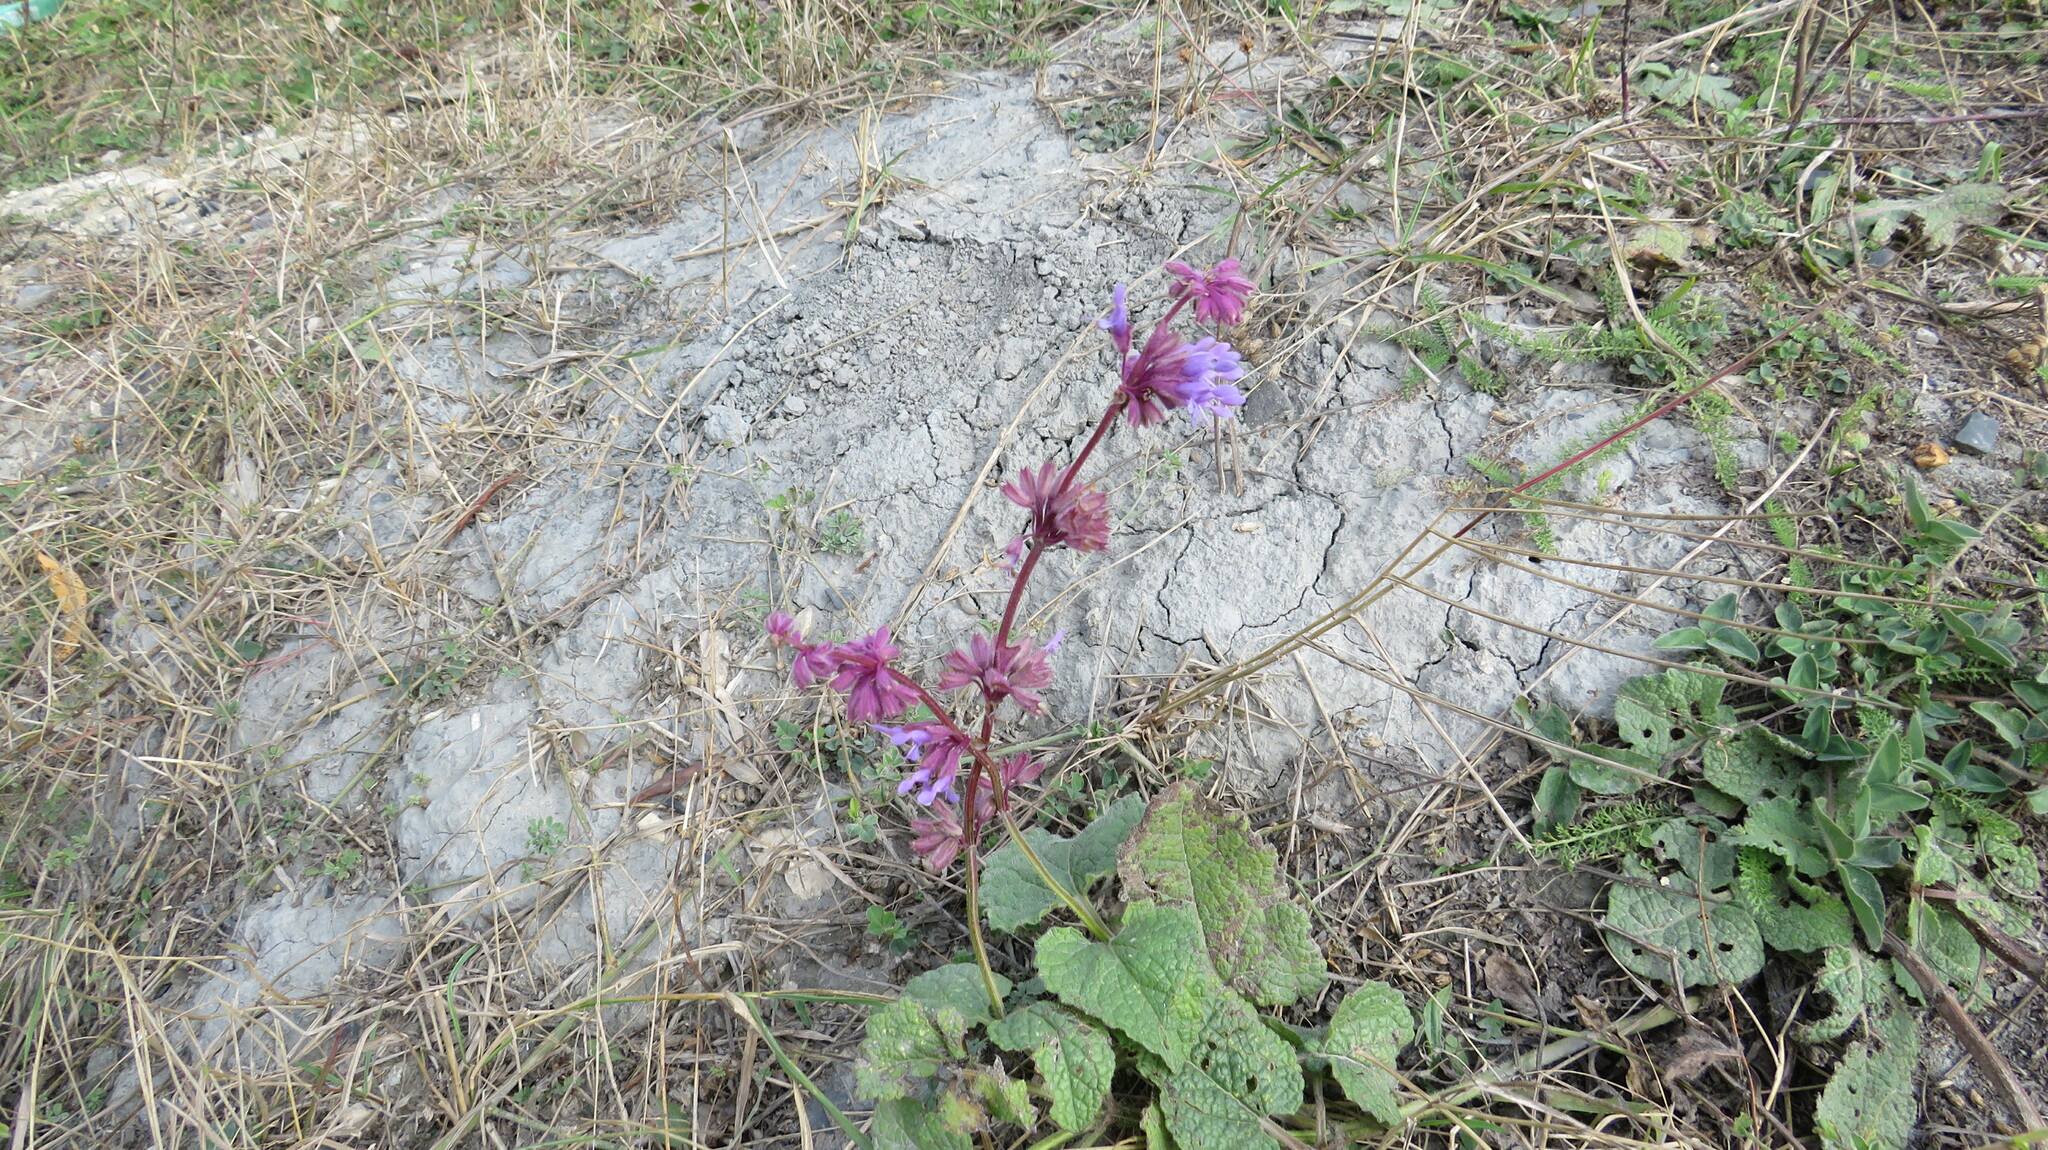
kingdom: Plantae
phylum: Tracheophyta
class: Magnoliopsida
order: Lamiales
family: Lamiaceae
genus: Salvia
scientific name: Salvia verticillata
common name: Whorled clary
